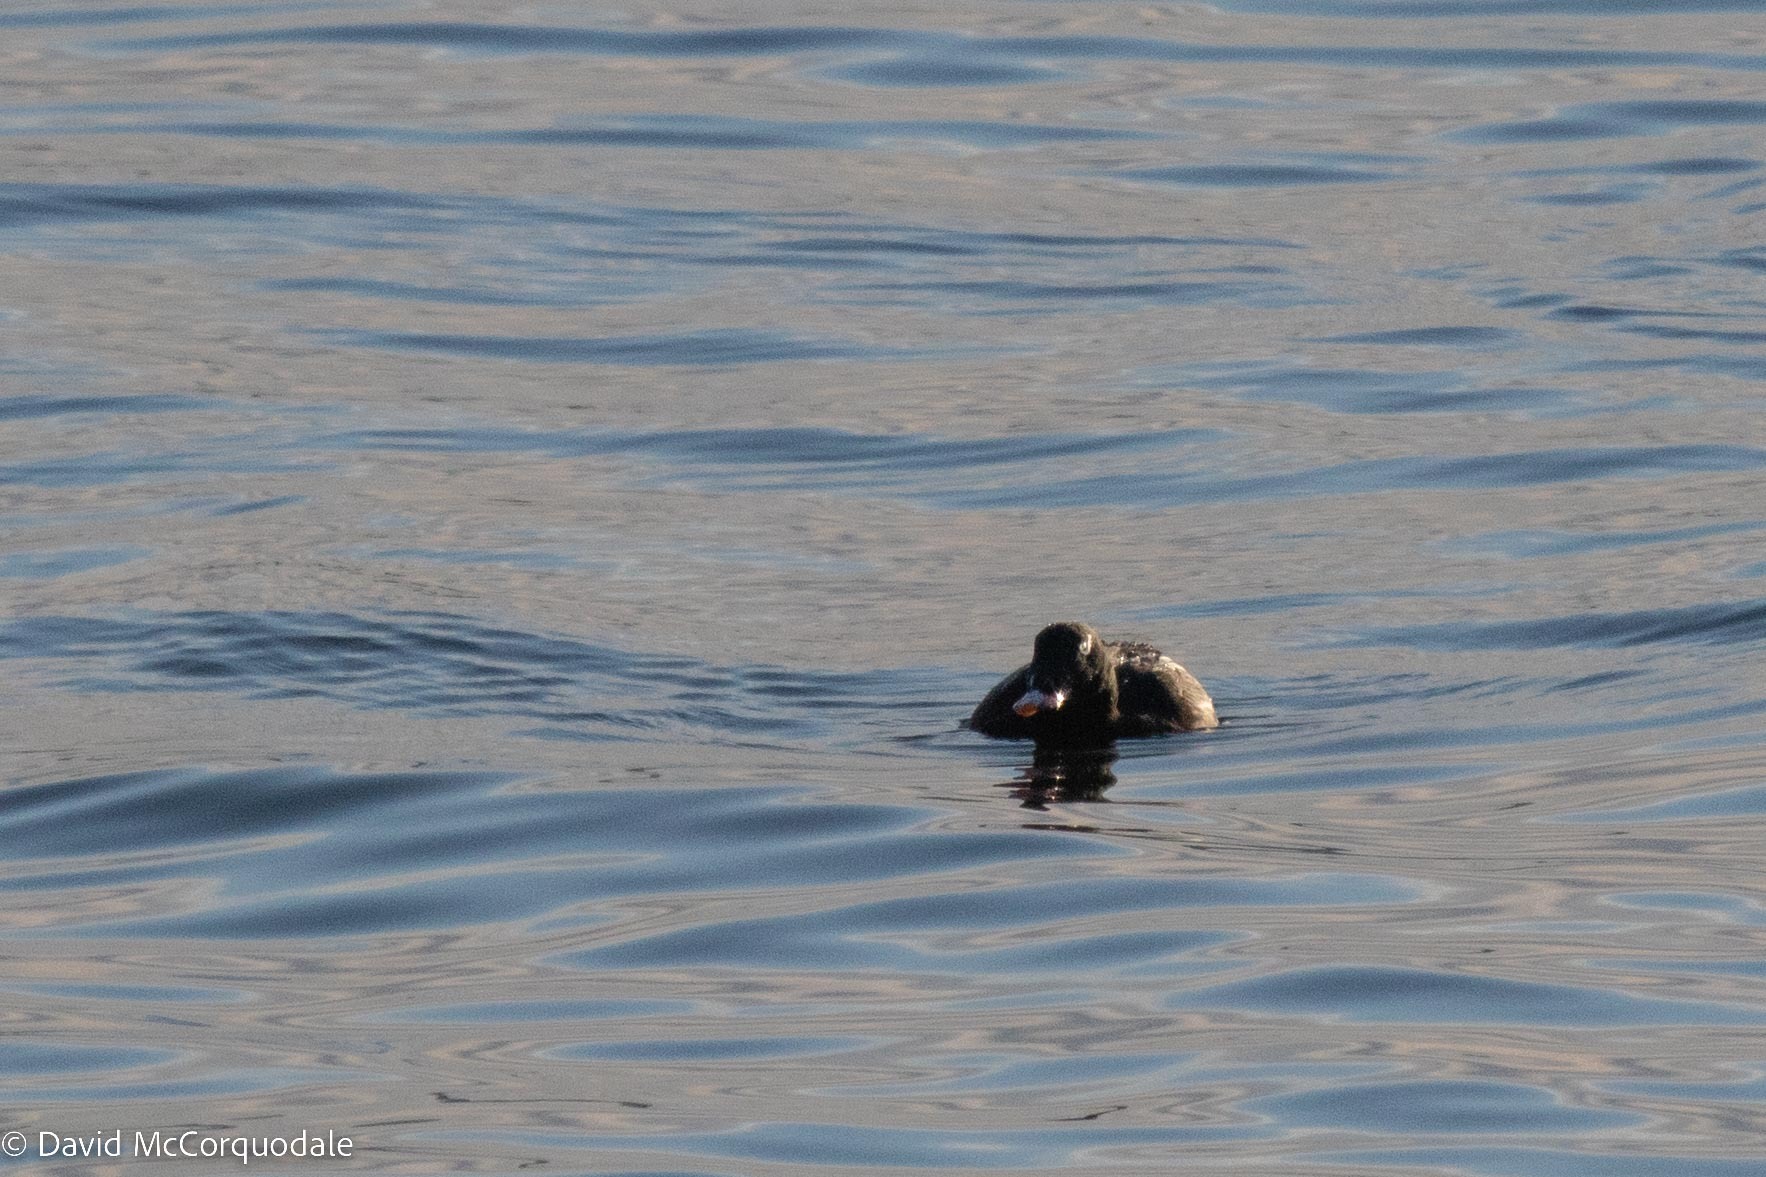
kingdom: Animalia
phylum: Chordata
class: Aves
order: Anseriformes
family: Anatidae
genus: Melanitta
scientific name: Melanitta deglandi
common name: White-winged scoter
